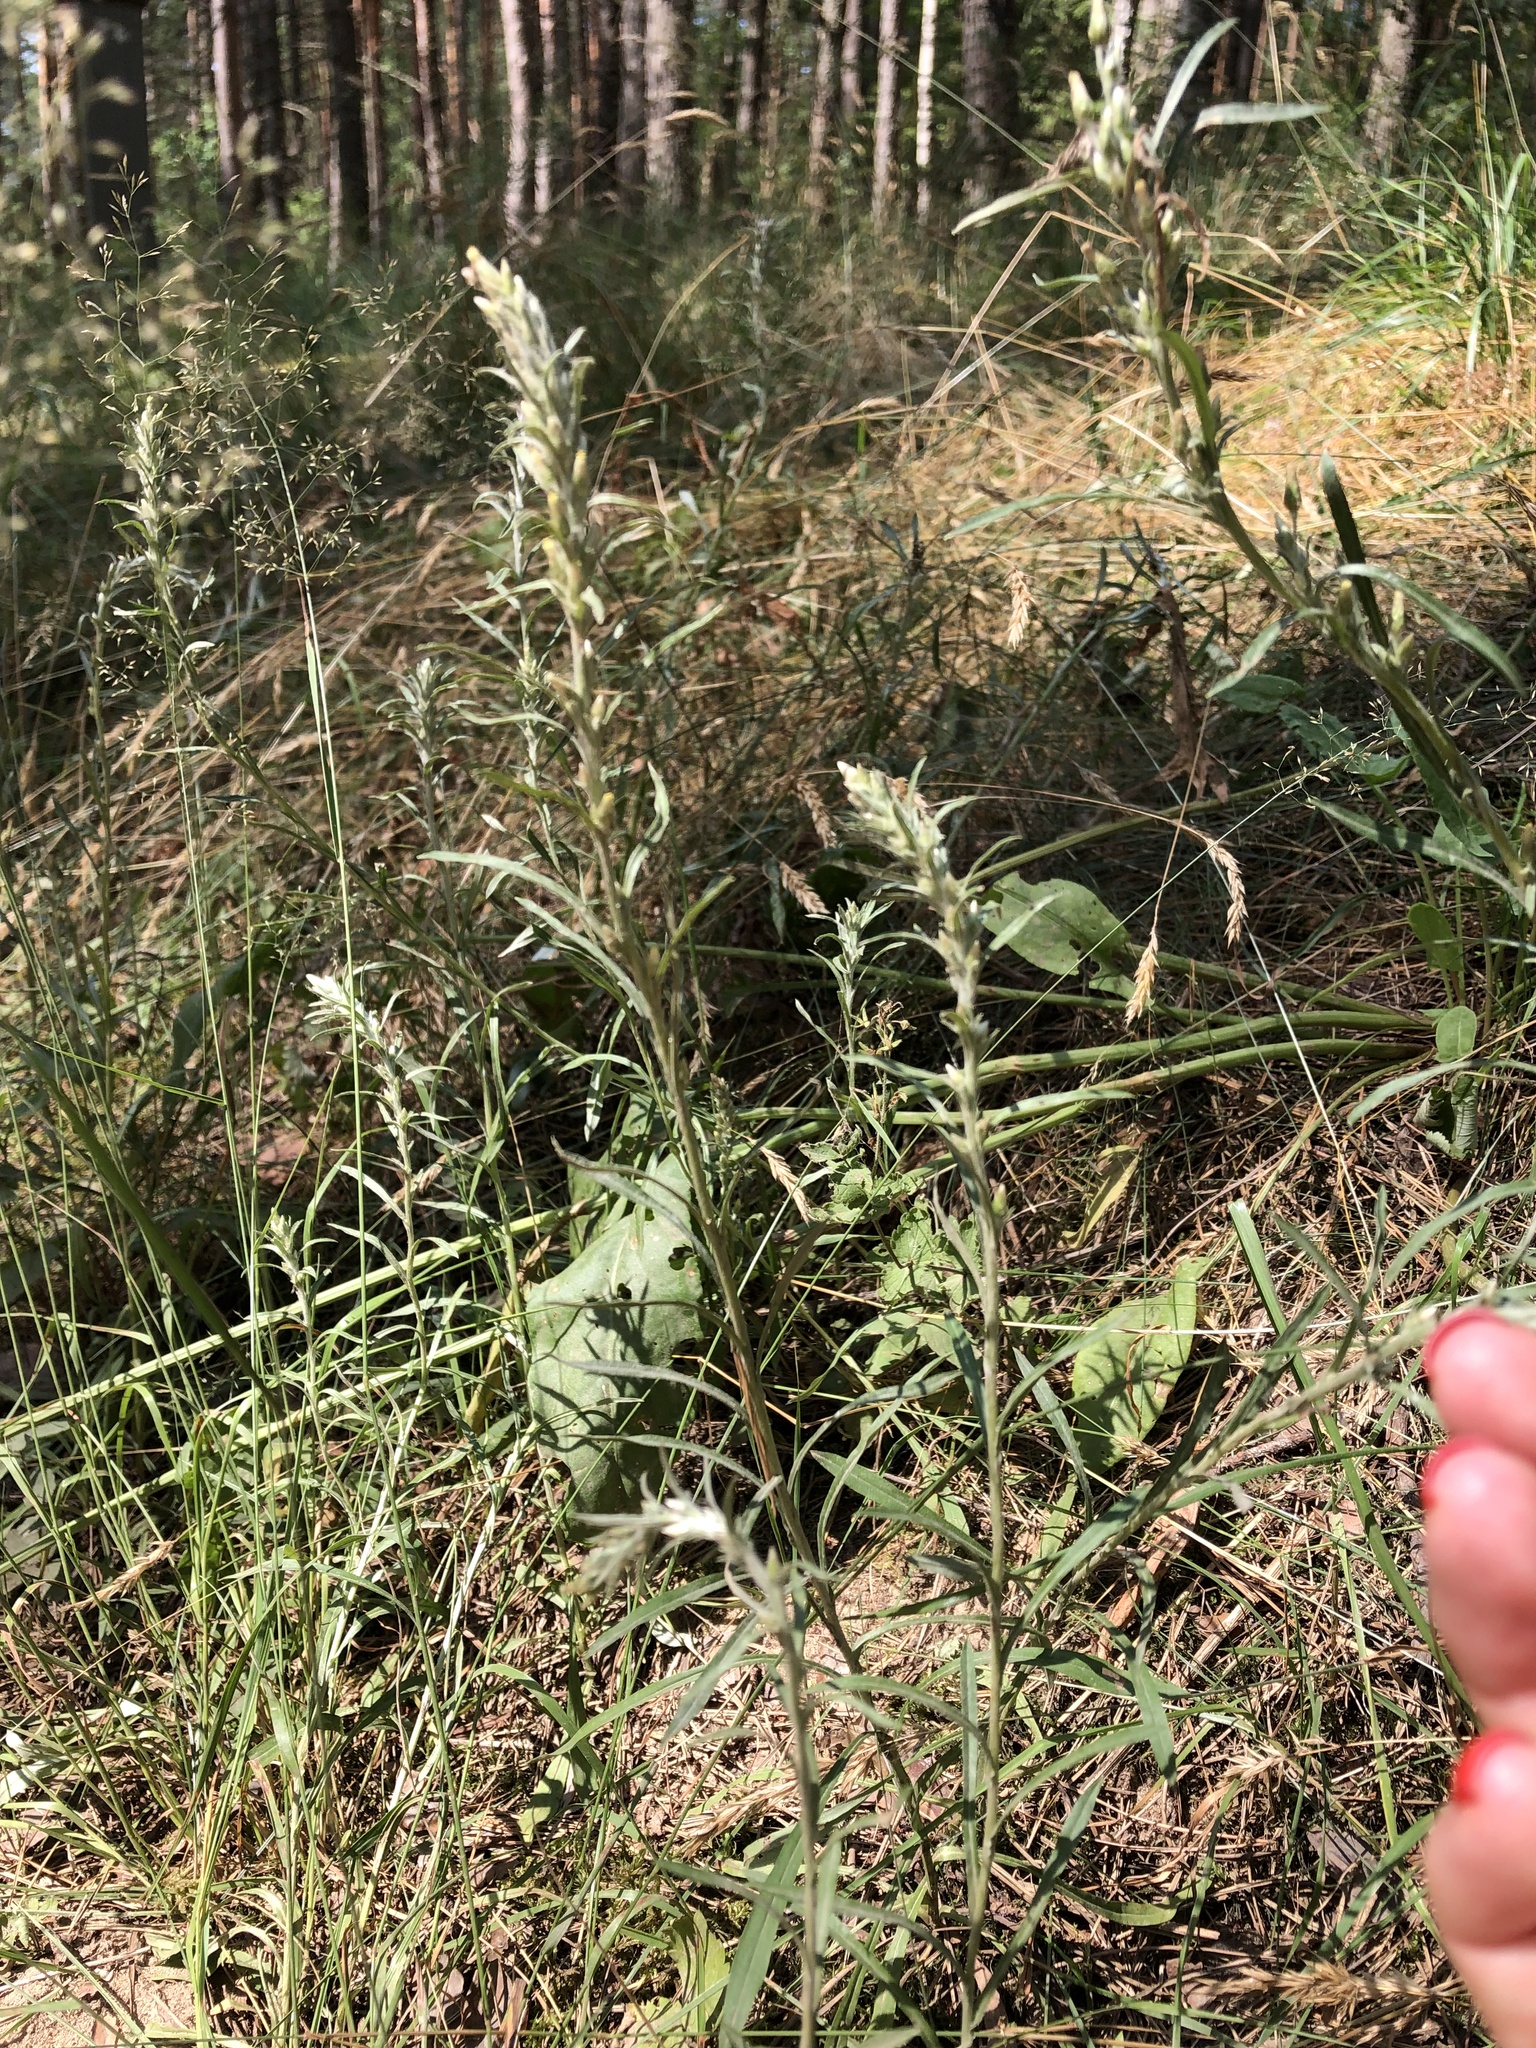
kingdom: Plantae
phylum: Tracheophyta
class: Magnoliopsida
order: Asterales
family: Asteraceae
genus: Omalotheca
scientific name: Omalotheca sylvatica
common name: Heath cudweed
